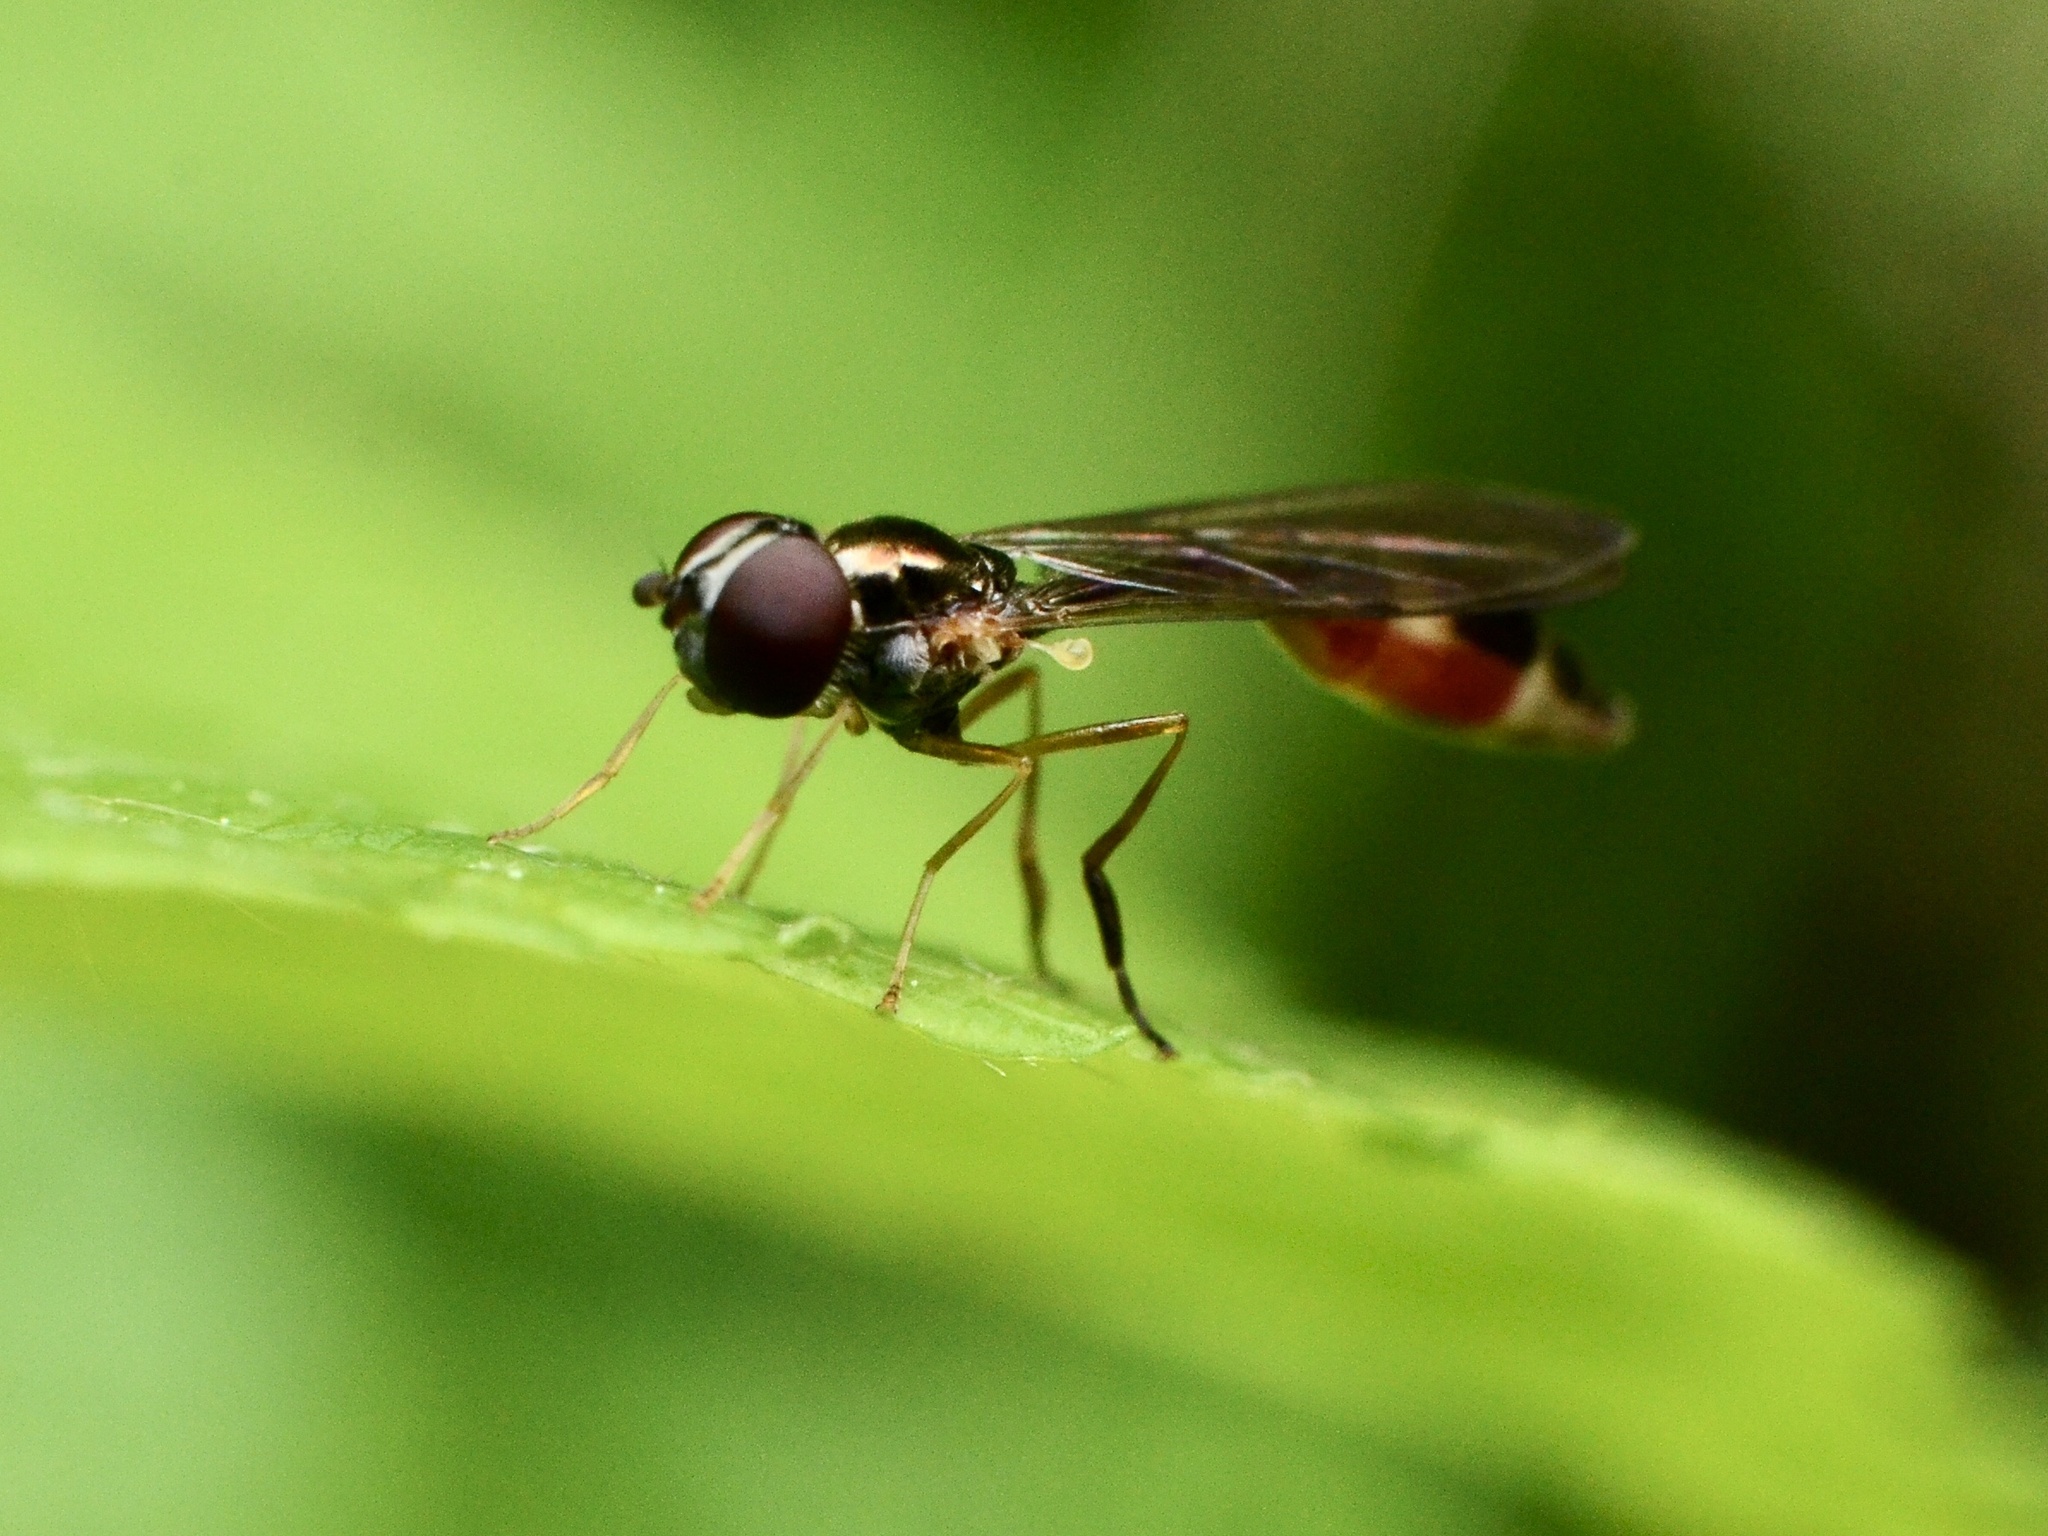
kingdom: Animalia
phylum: Arthropoda
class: Insecta
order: Diptera
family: Syrphidae
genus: Baccha
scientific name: Baccha elongata
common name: Common dainty
